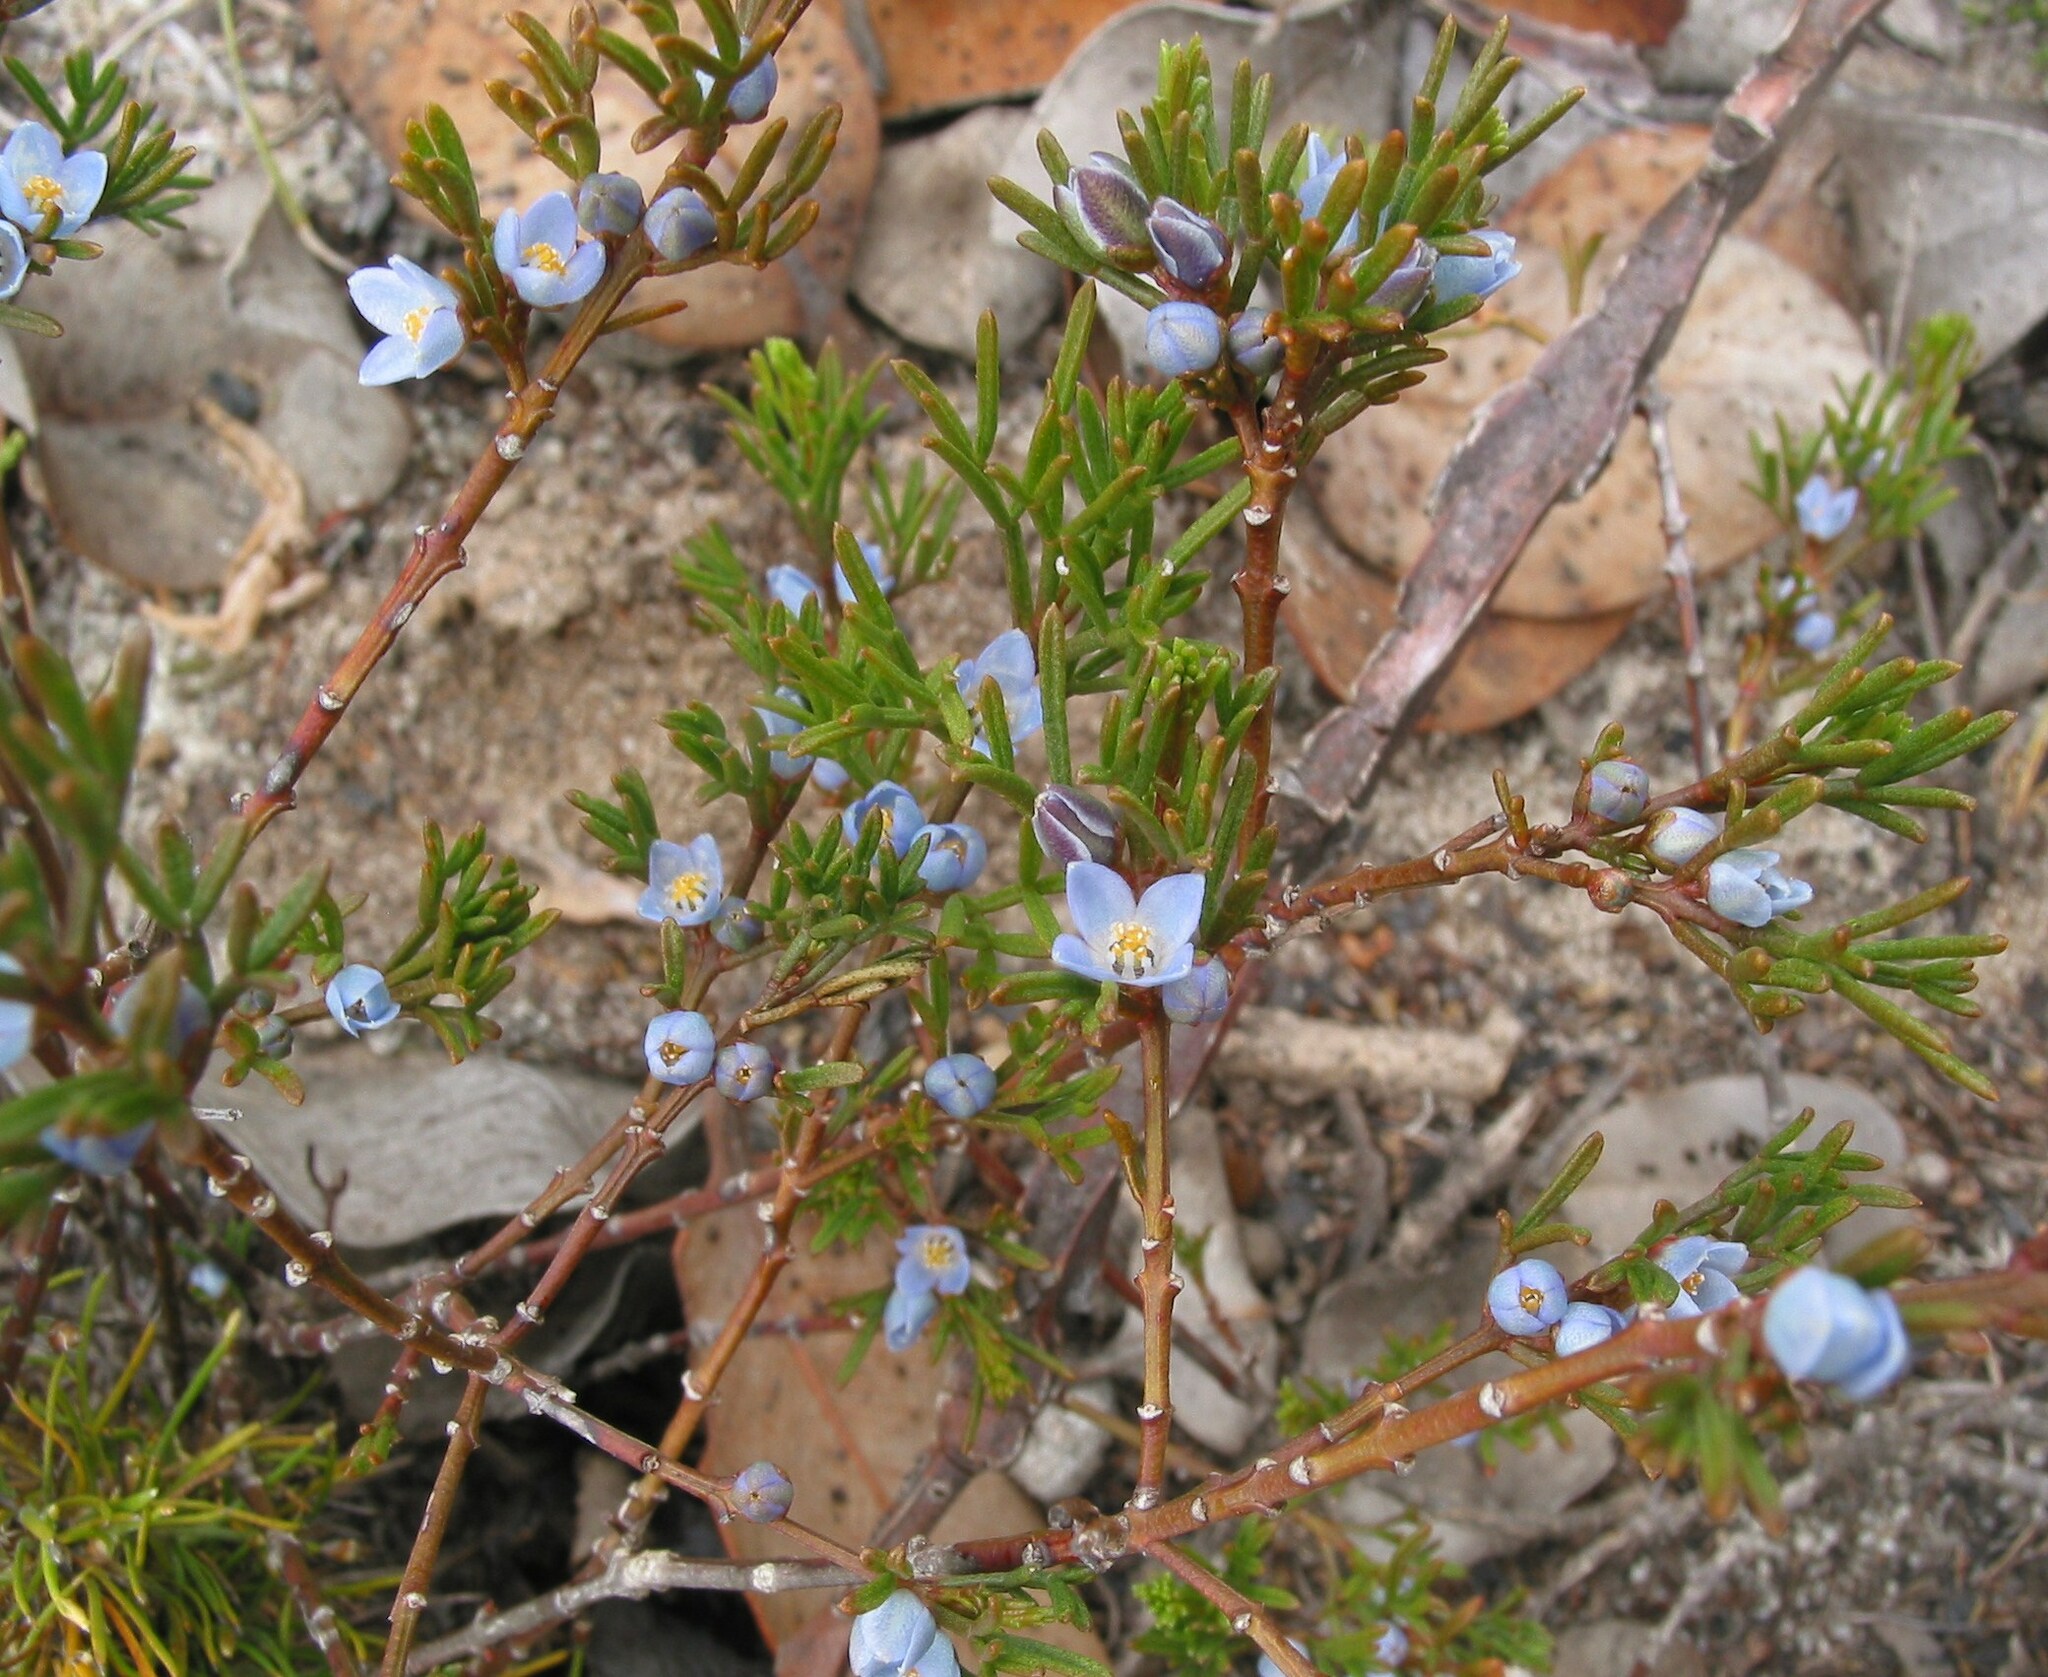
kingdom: Plantae
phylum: Tracheophyta
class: Magnoliopsida
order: Sapindales
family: Rutaceae
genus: Cyanothamnus
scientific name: Cyanothamnus ramosus
